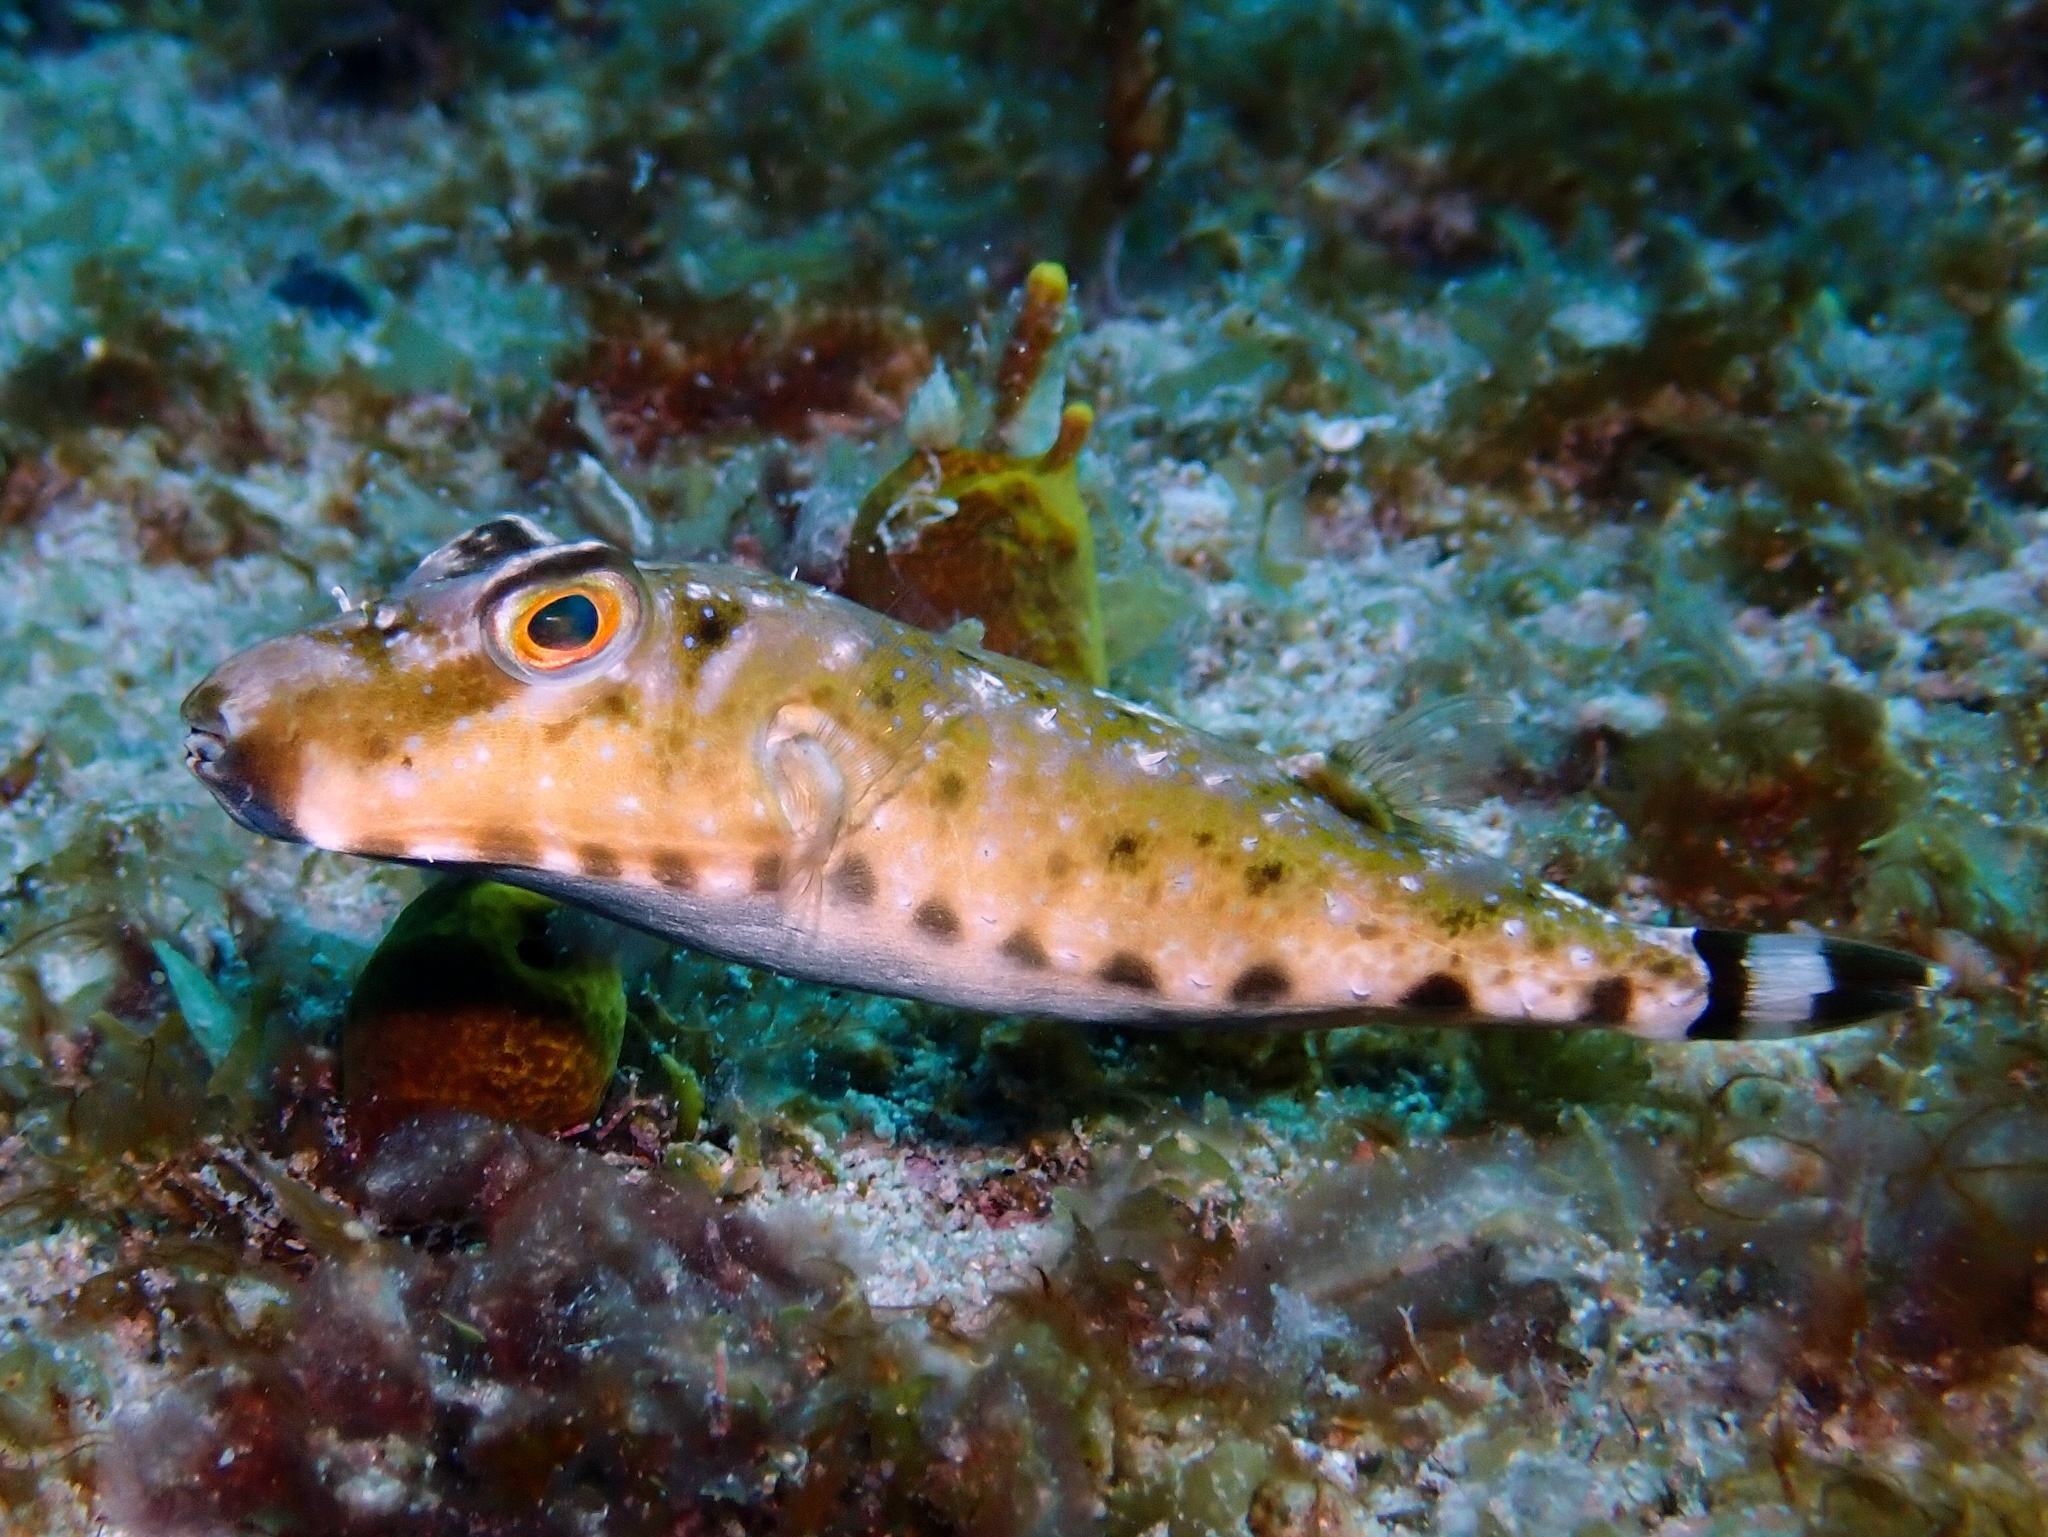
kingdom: Animalia
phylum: Chordata
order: Tetraodontiformes
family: Tetraodontidae
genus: Sphoeroides
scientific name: Sphoeroides spengleri
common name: Bandtail puffer
